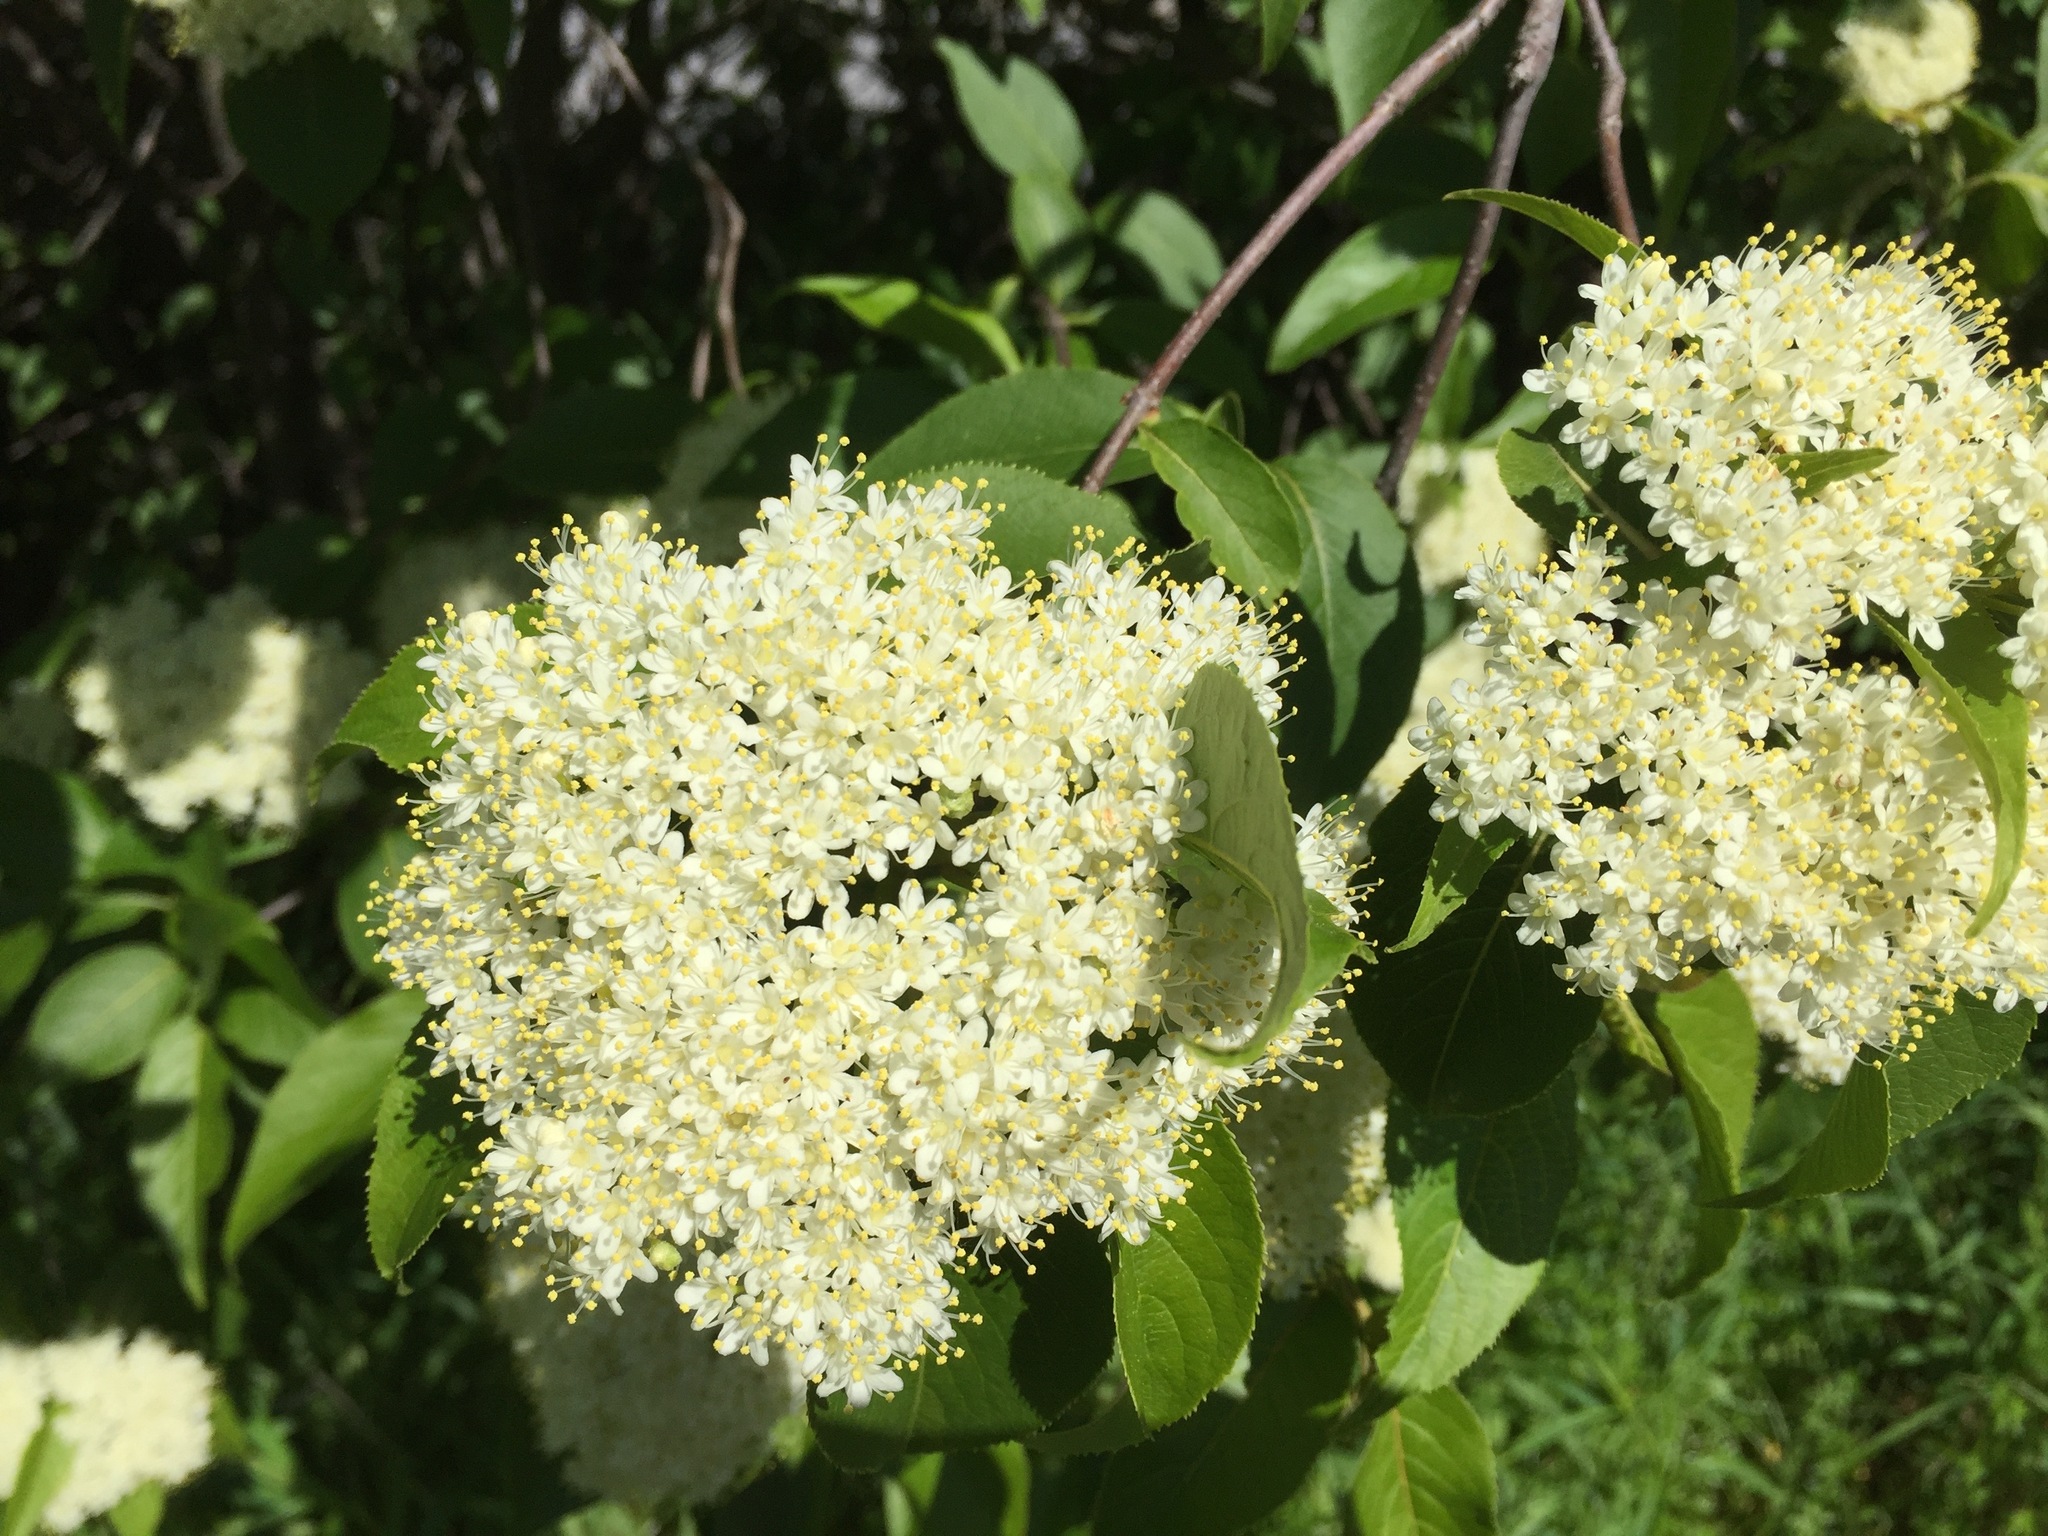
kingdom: Plantae
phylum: Tracheophyta
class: Magnoliopsida
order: Dipsacales
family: Viburnaceae
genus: Viburnum
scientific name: Viburnum lentago
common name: Black haw
